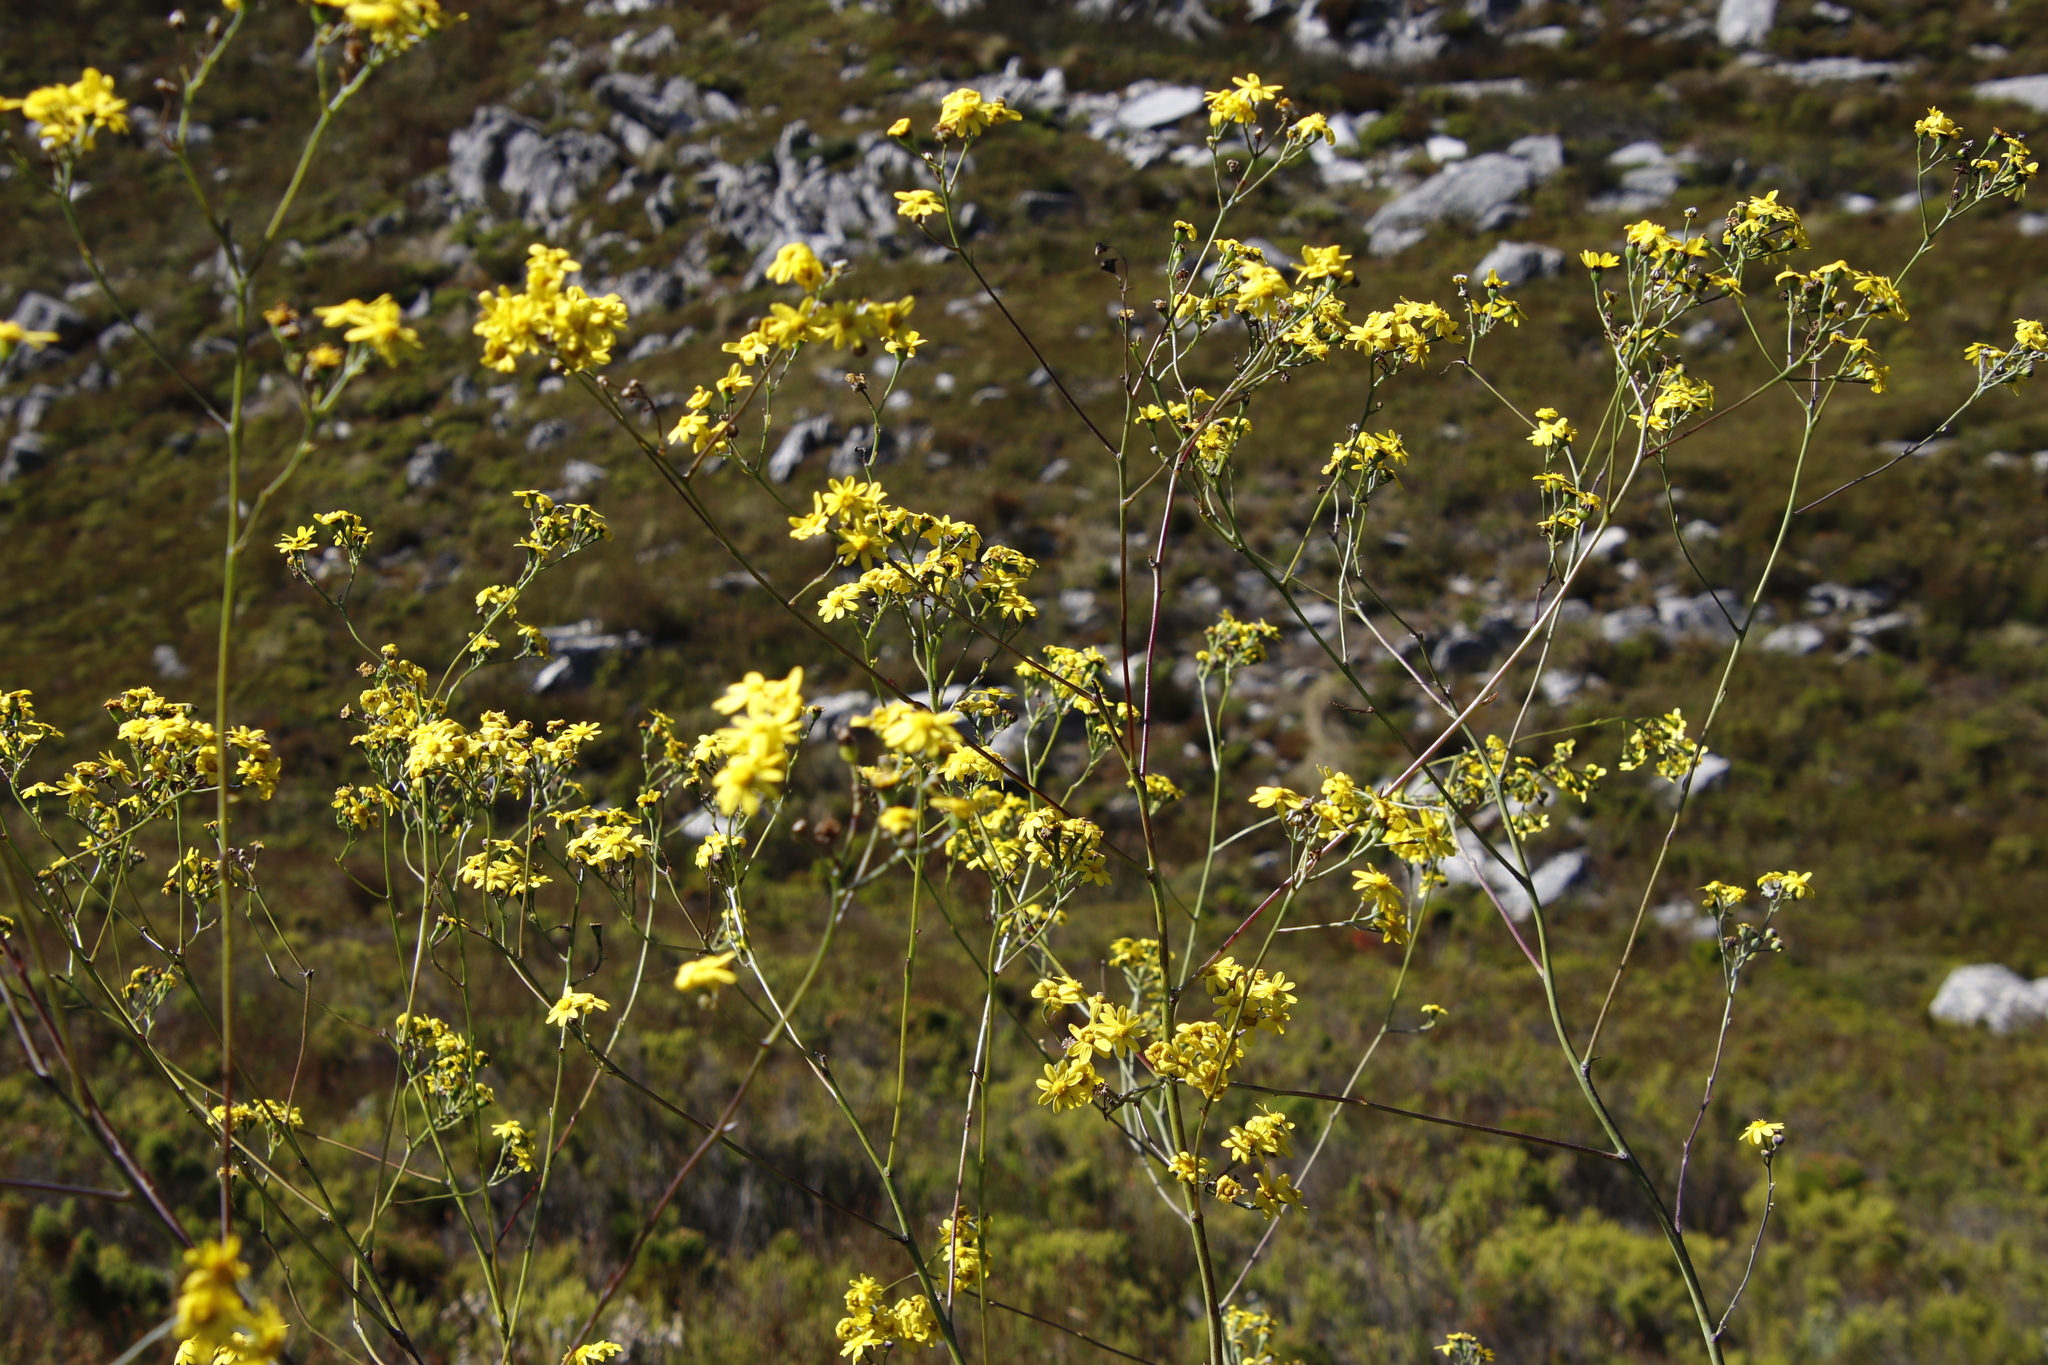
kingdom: Plantae
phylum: Tracheophyta
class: Magnoliopsida
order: Asterales
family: Asteraceae
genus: Othonna
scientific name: Othonna quinquedentata
